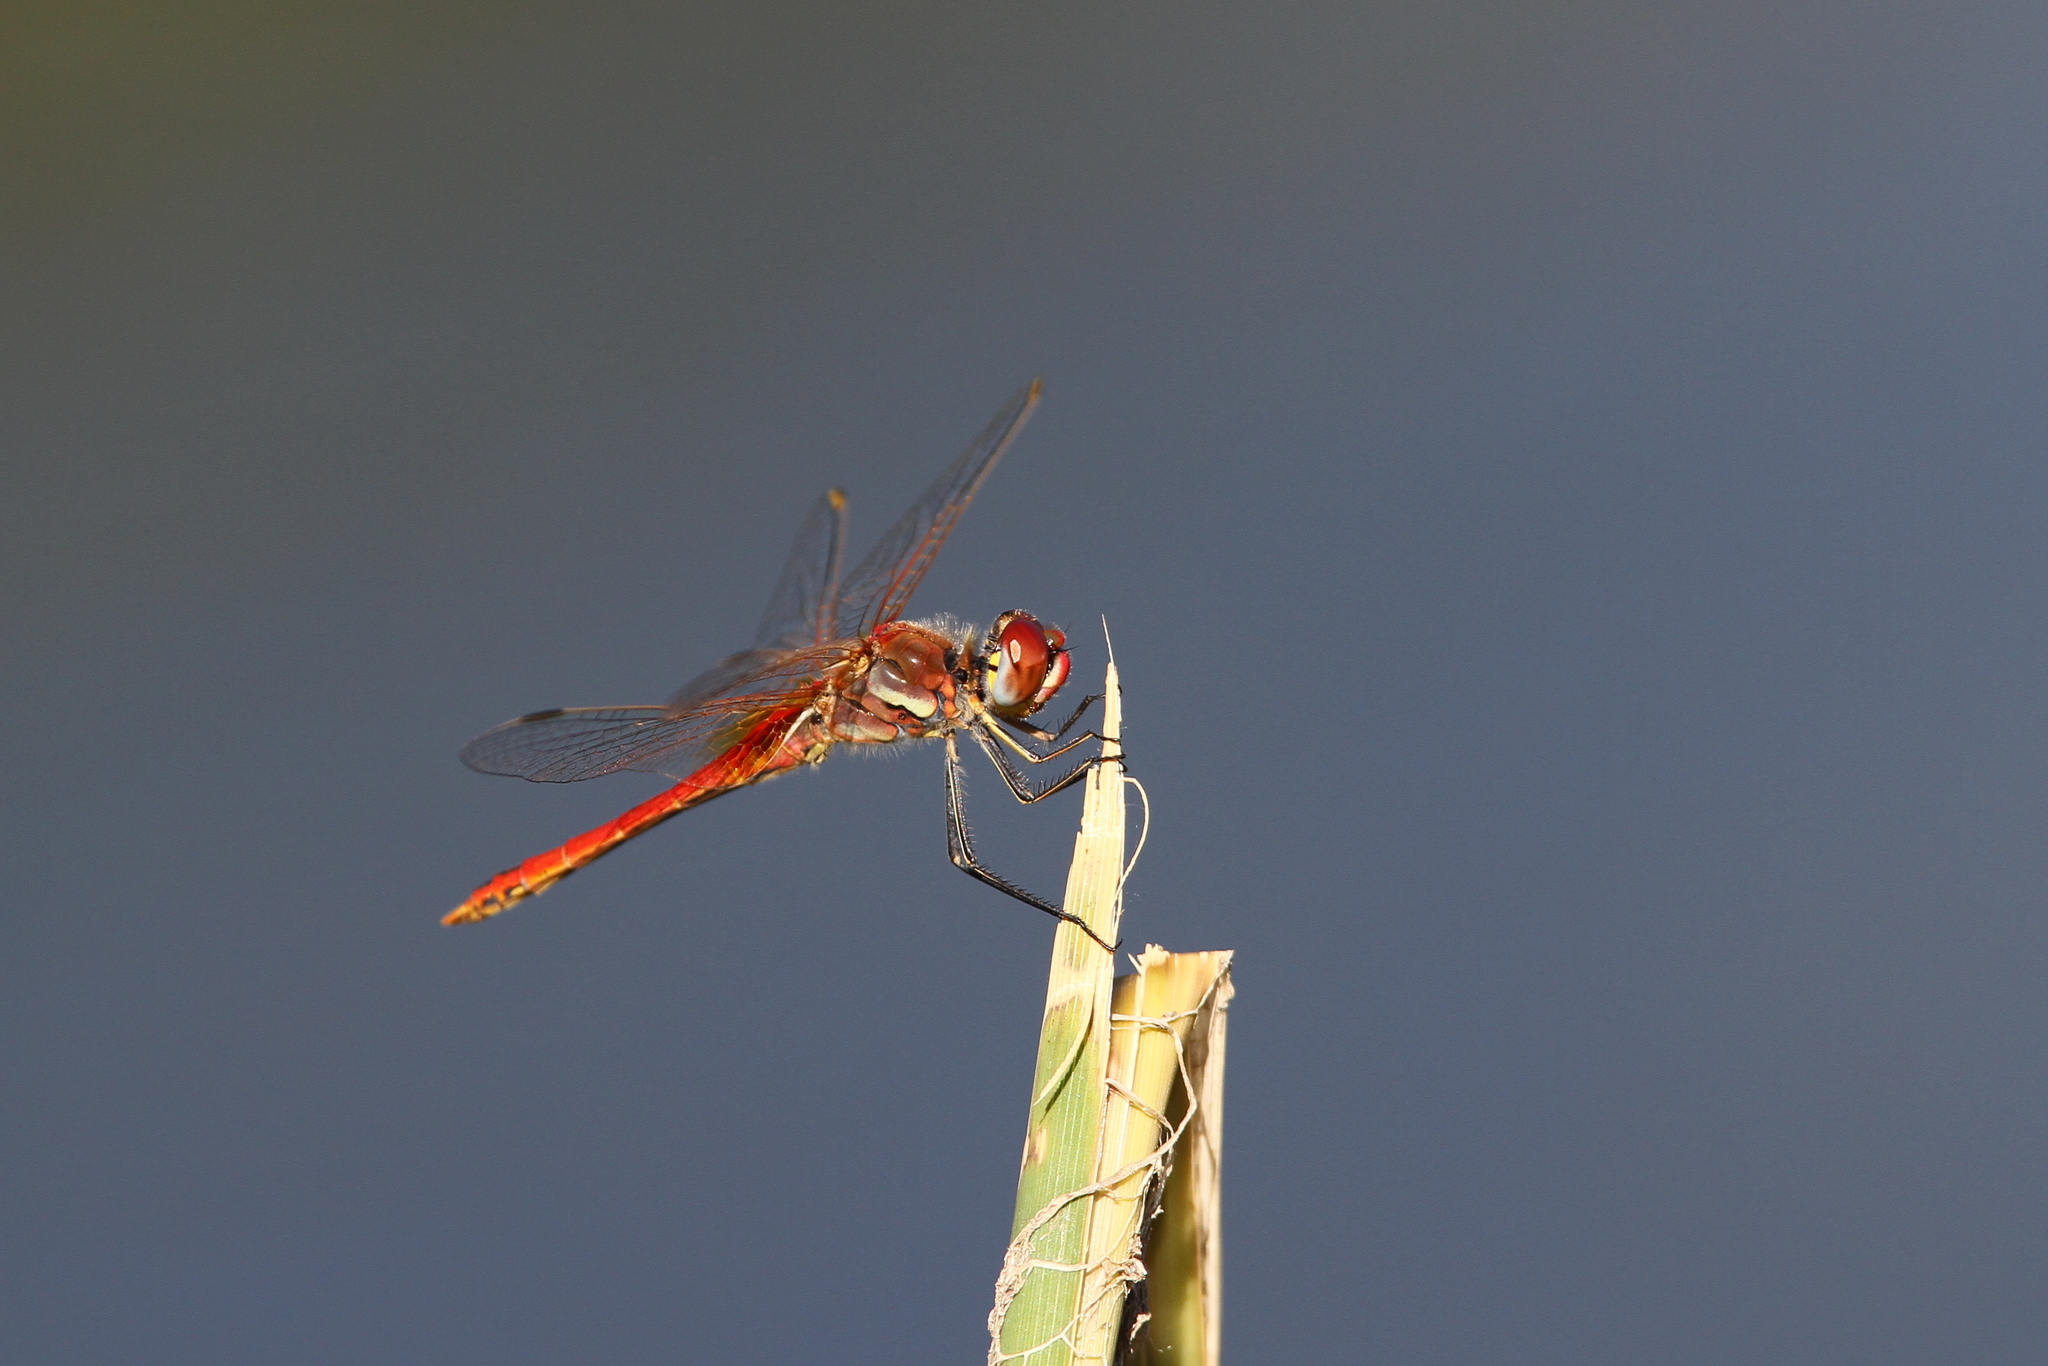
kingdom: Animalia
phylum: Arthropoda
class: Insecta
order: Odonata
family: Libellulidae
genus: Sympetrum
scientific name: Sympetrum fonscolombii
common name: Red-veined darter
